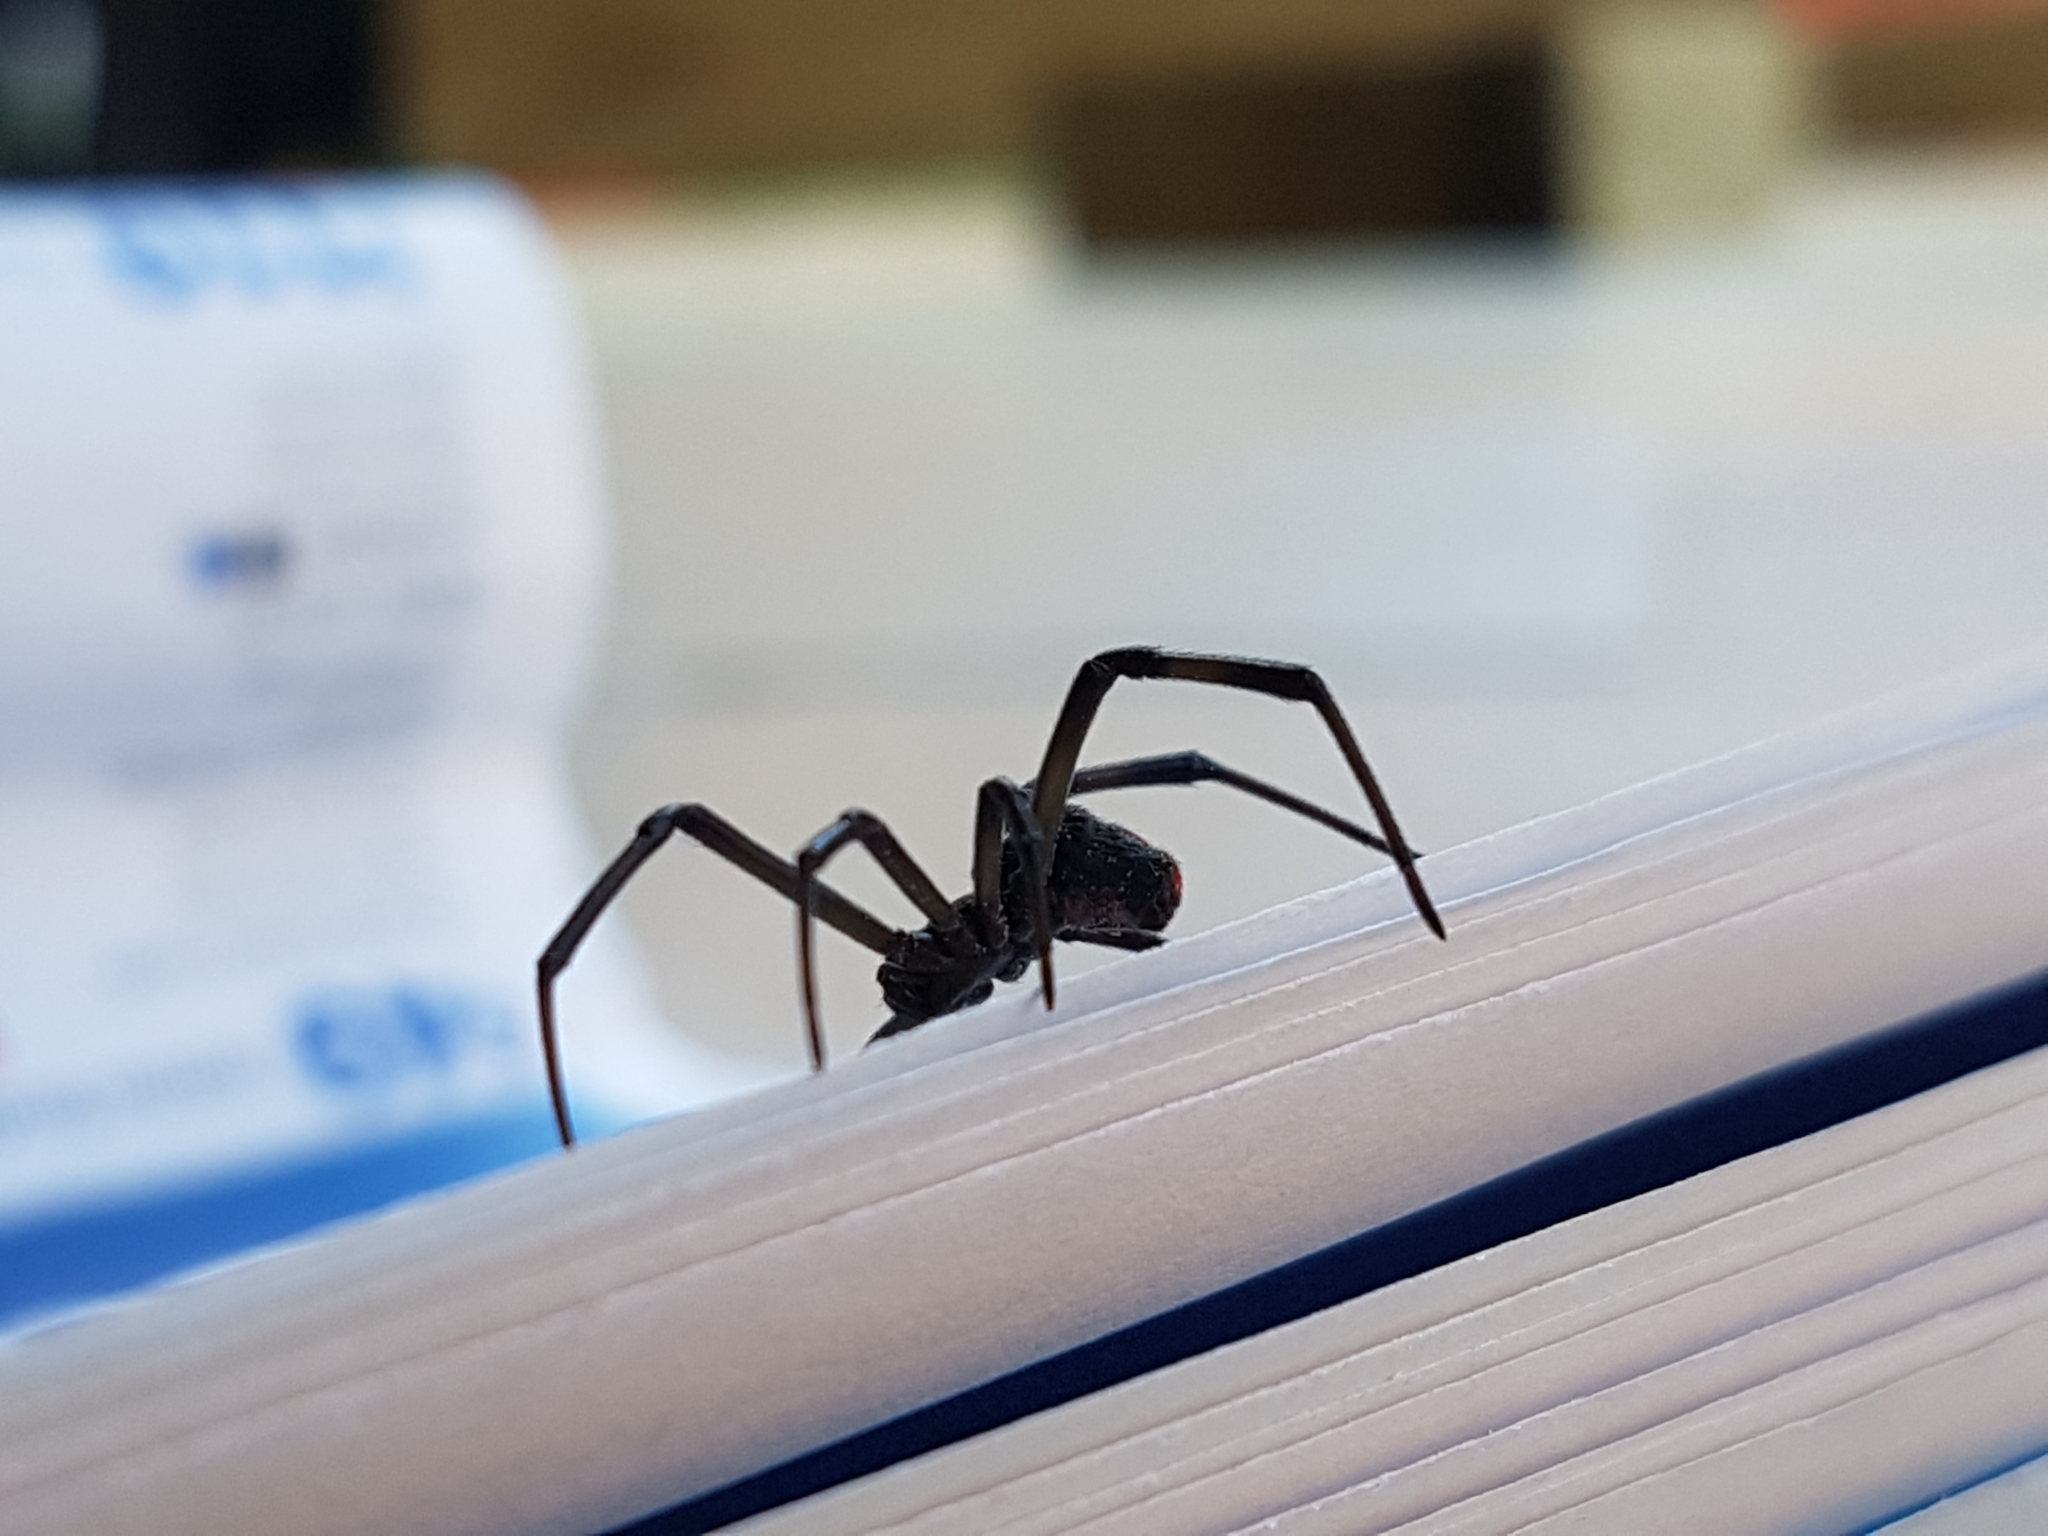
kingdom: Animalia
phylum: Arthropoda
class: Arachnida
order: Araneae
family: Theridiidae
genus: Latrodectus
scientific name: Latrodectus hasselti
